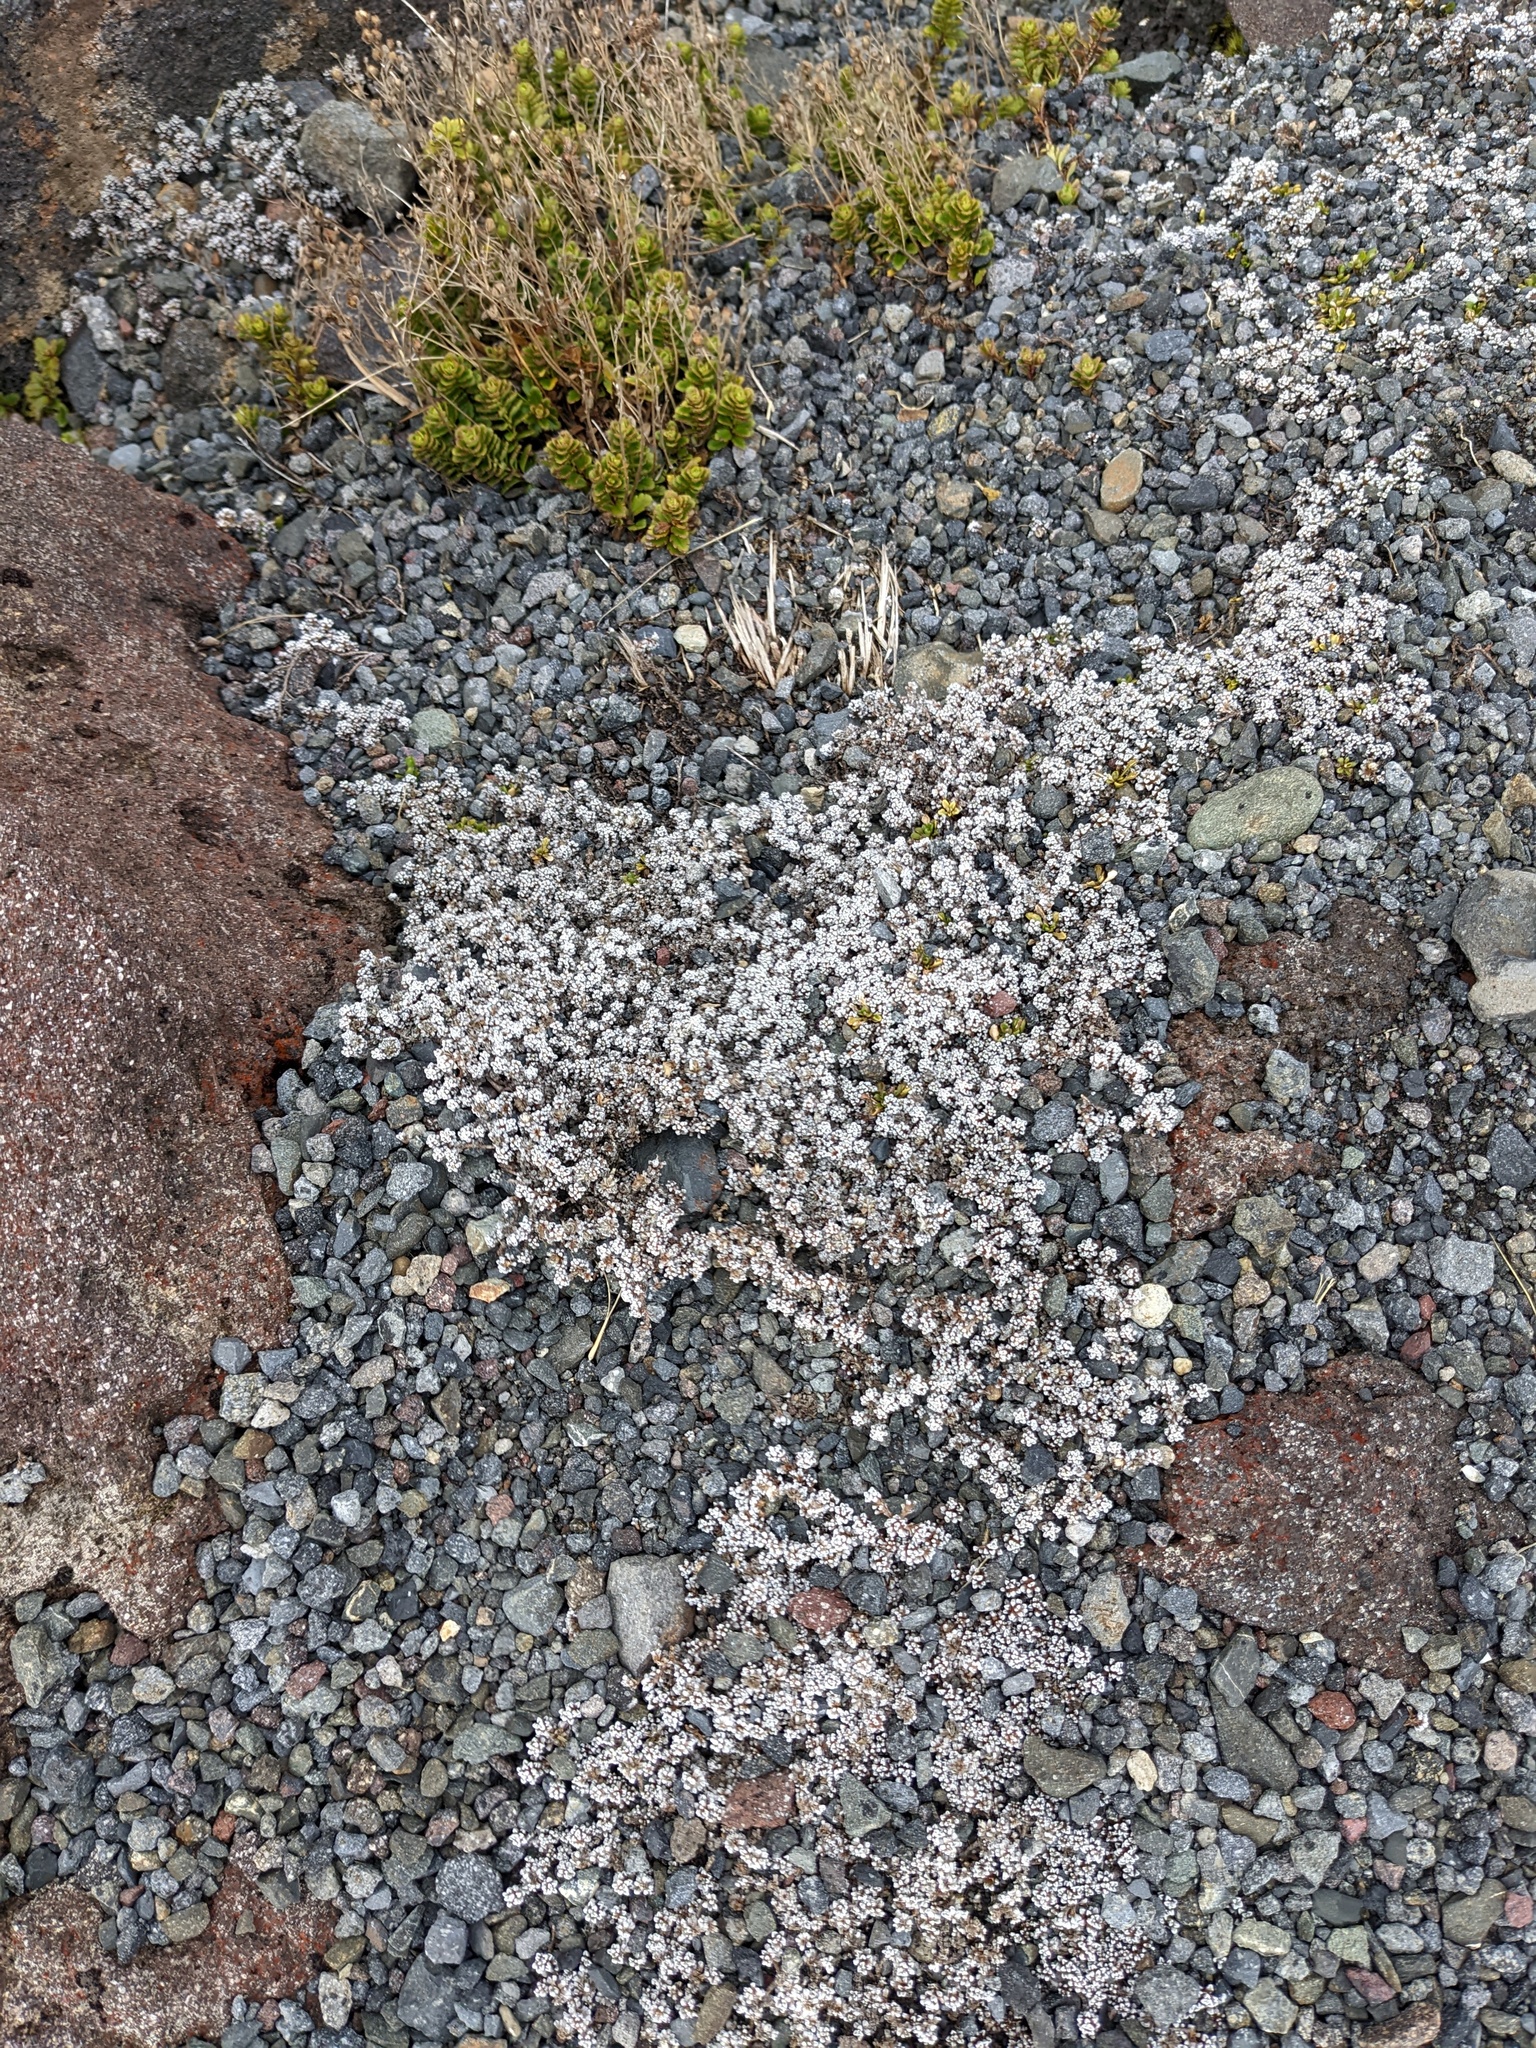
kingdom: Plantae
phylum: Tracheophyta
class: Magnoliopsida
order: Asterales
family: Asteraceae
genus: Raoulia
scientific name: Raoulia albosericea
